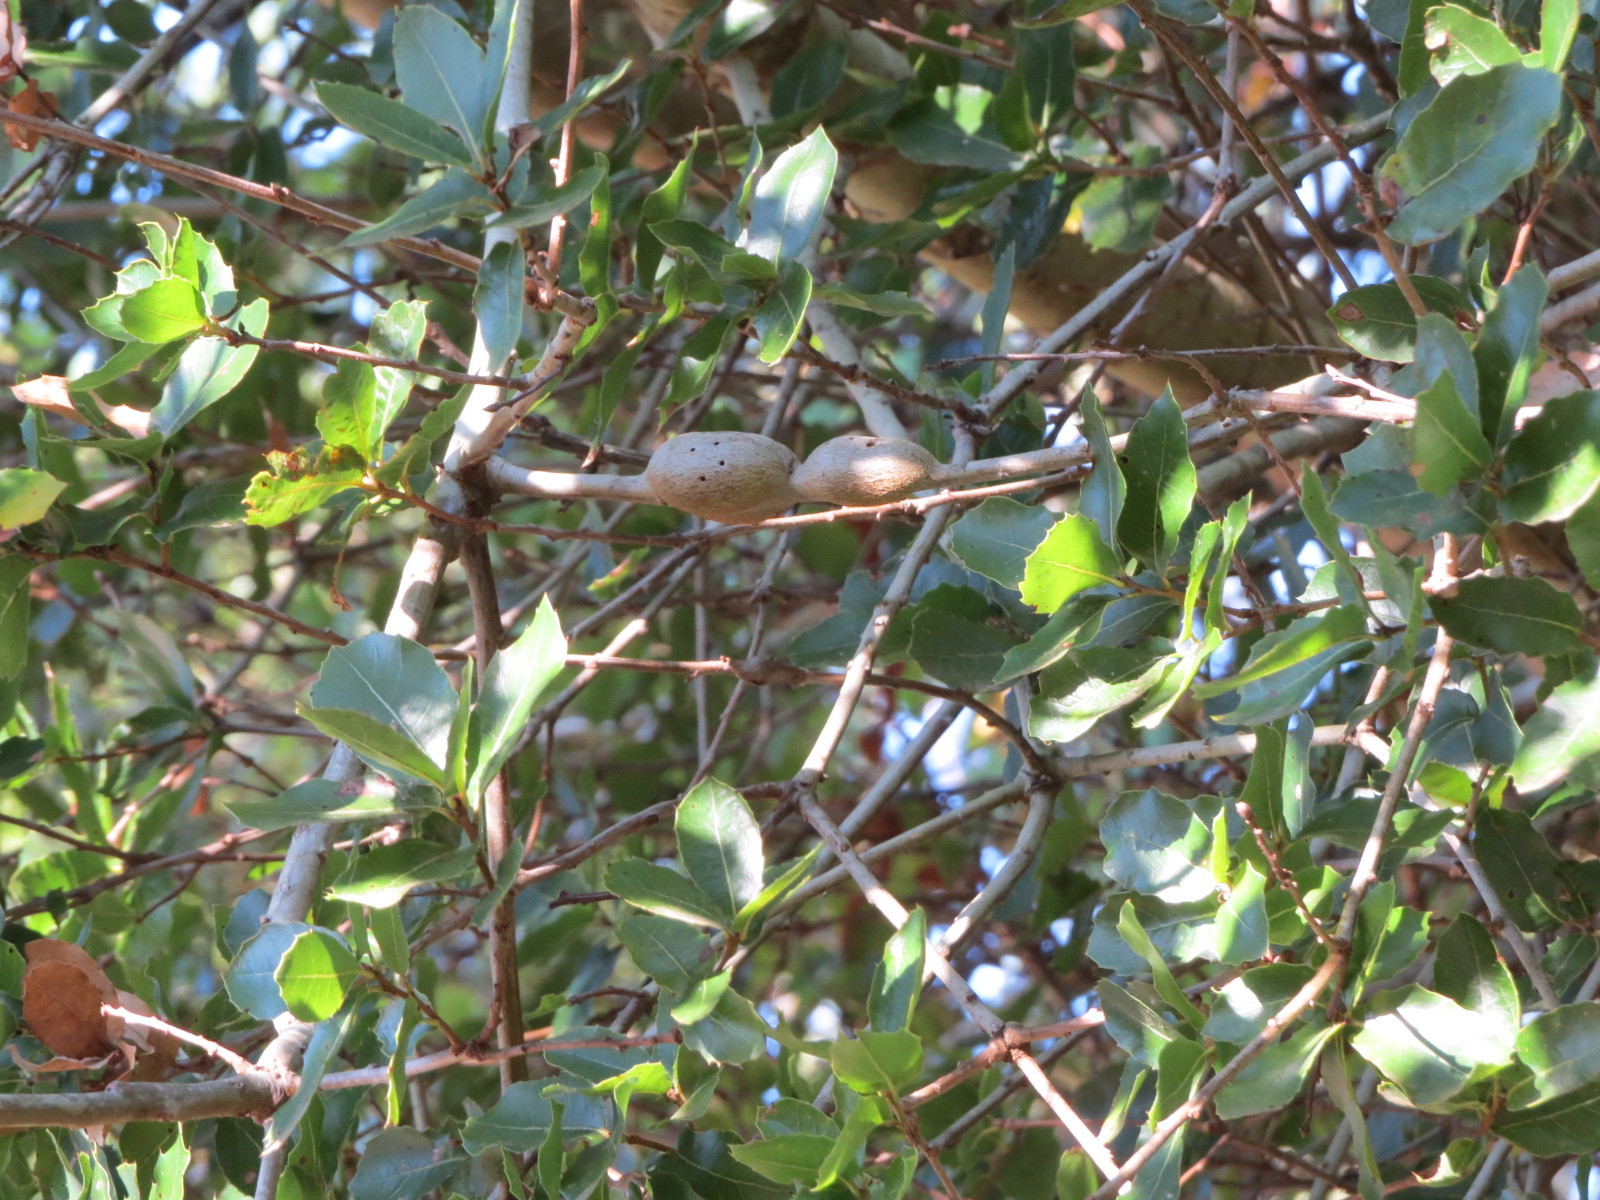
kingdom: Animalia
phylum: Arthropoda
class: Insecta
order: Hymenoptera
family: Cynipidae
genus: Callirhytis
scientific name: Callirhytis
